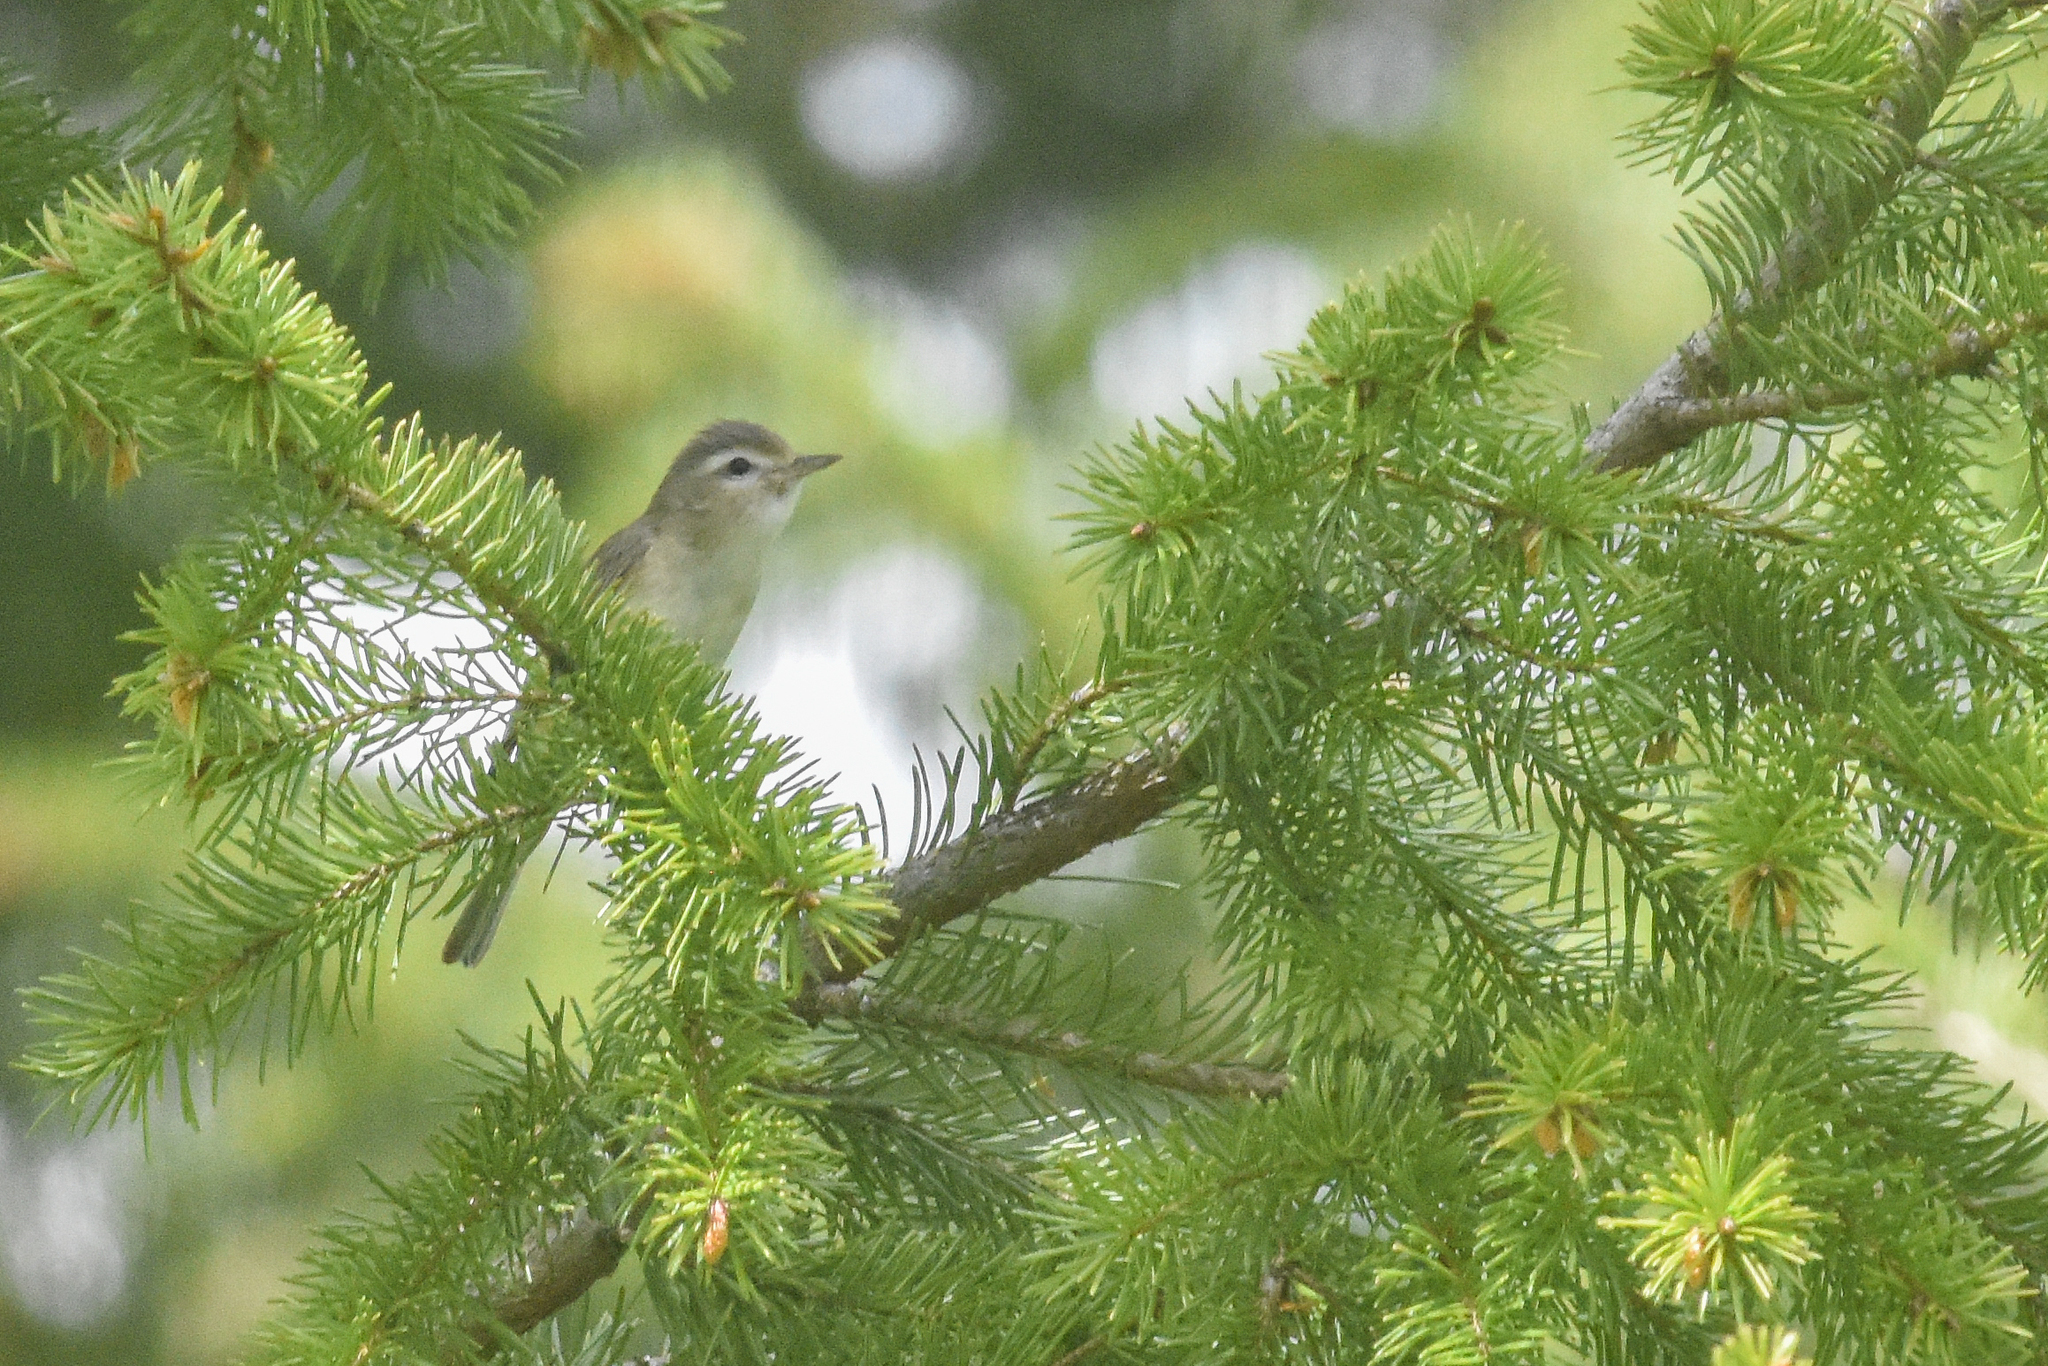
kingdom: Animalia
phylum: Chordata
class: Aves
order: Passeriformes
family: Vireonidae
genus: Vireo
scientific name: Vireo gilvus
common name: Warbling vireo
